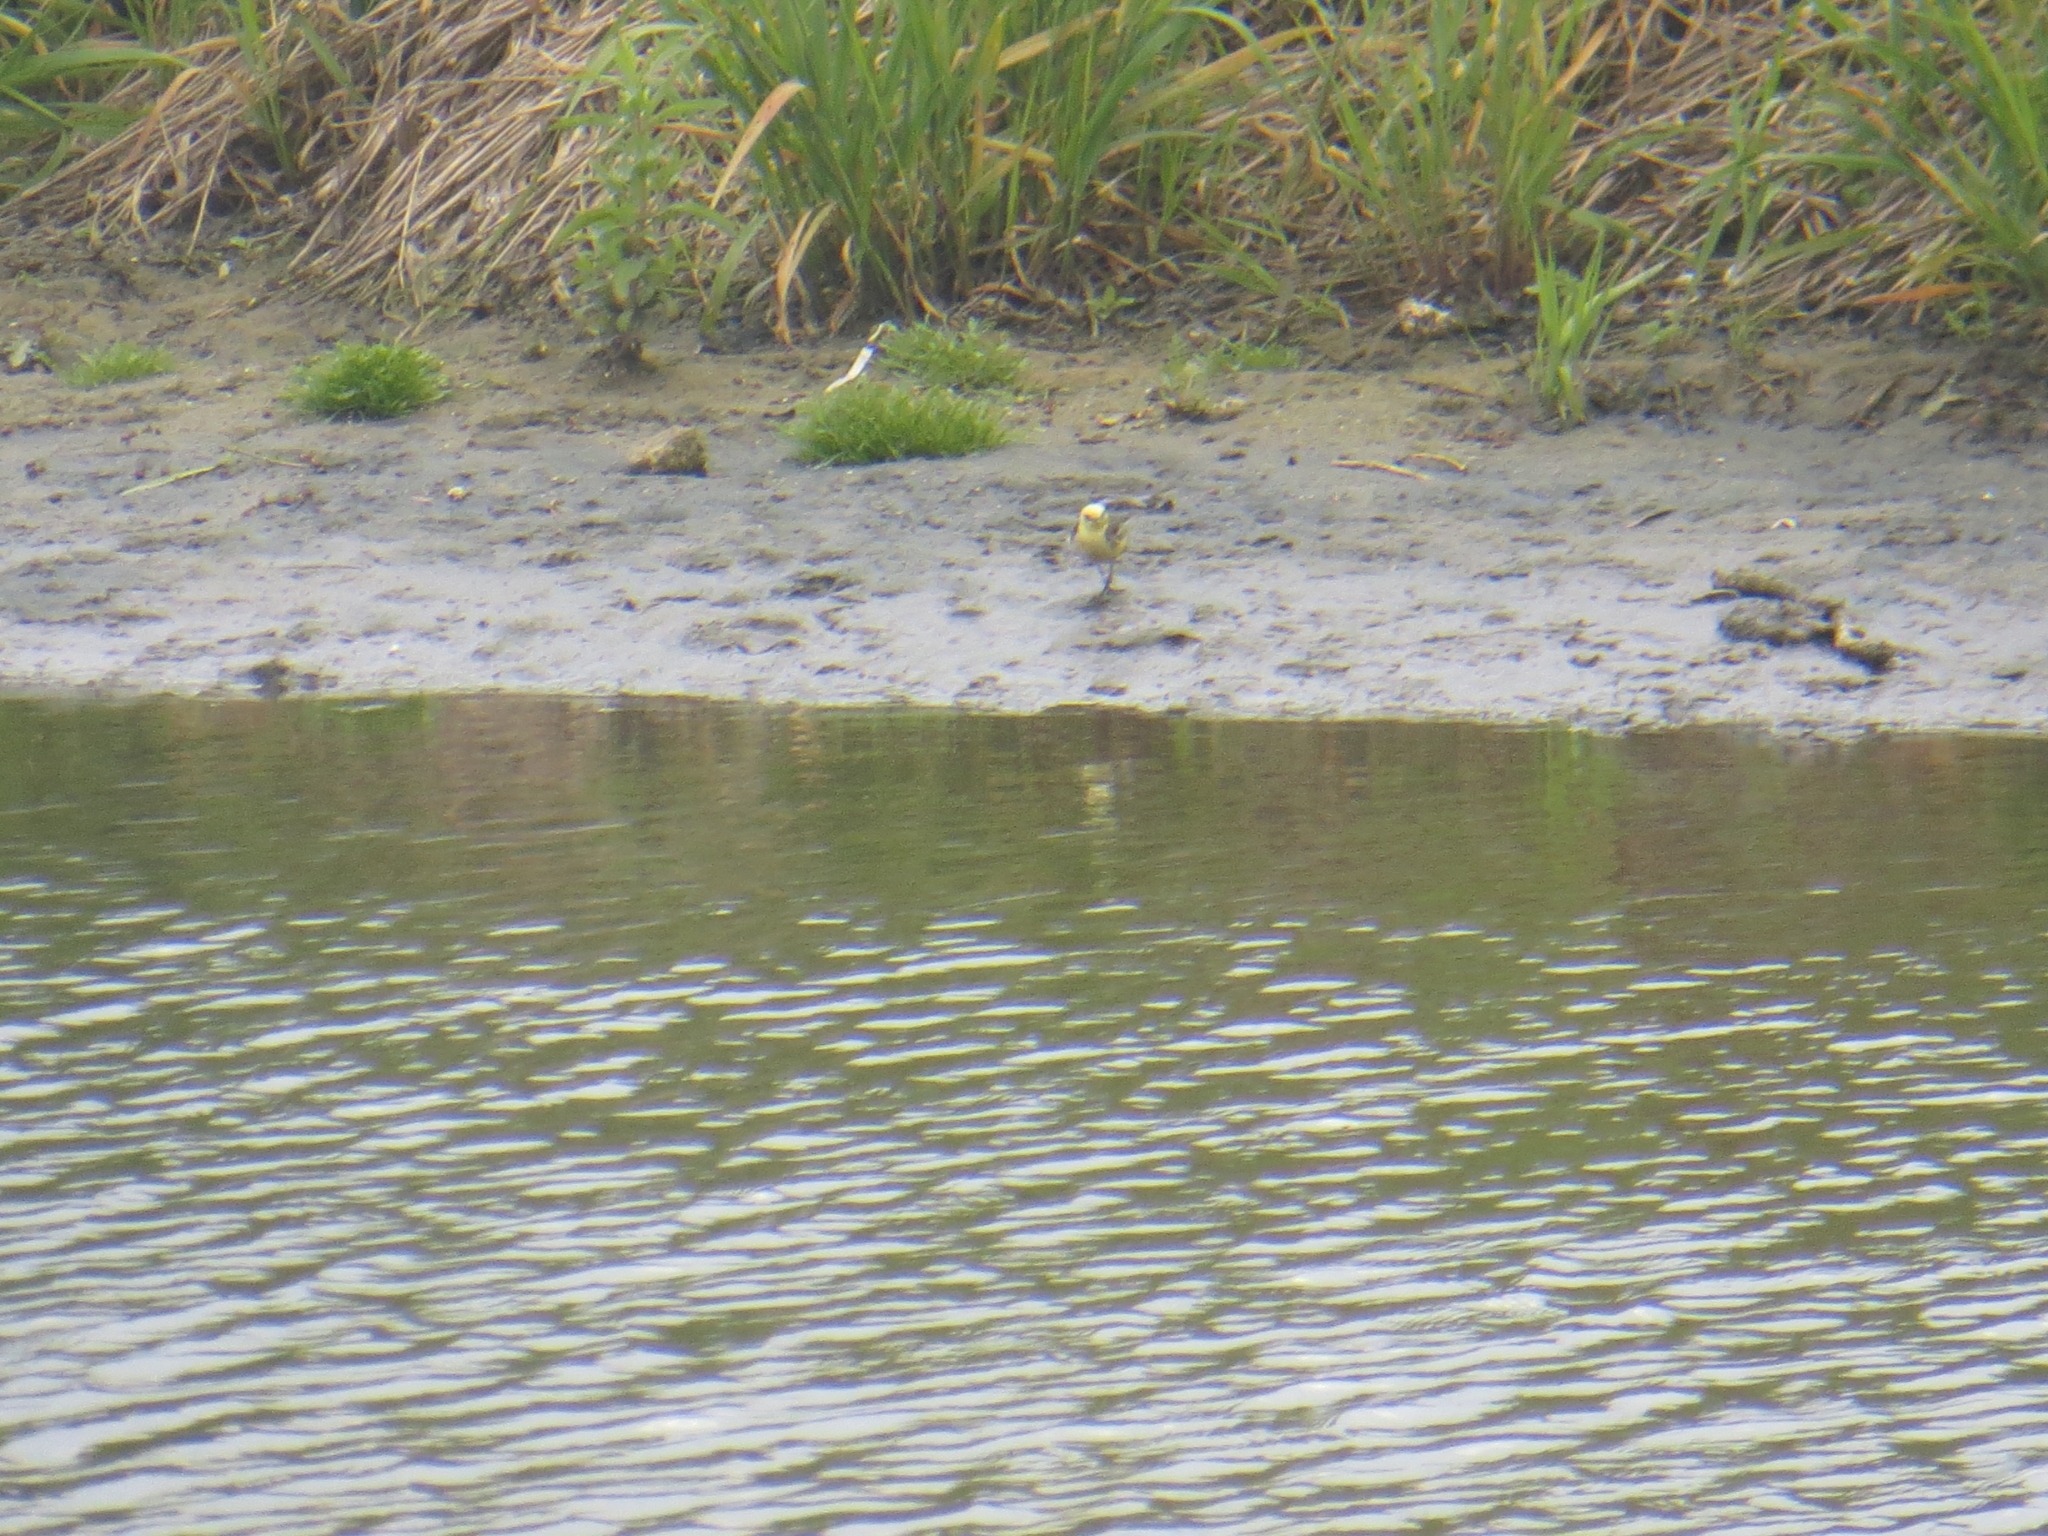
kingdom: Animalia
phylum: Chordata
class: Aves
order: Passeriformes
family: Motacillidae
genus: Motacilla
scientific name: Motacilla citreola
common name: Citrine wagtail
